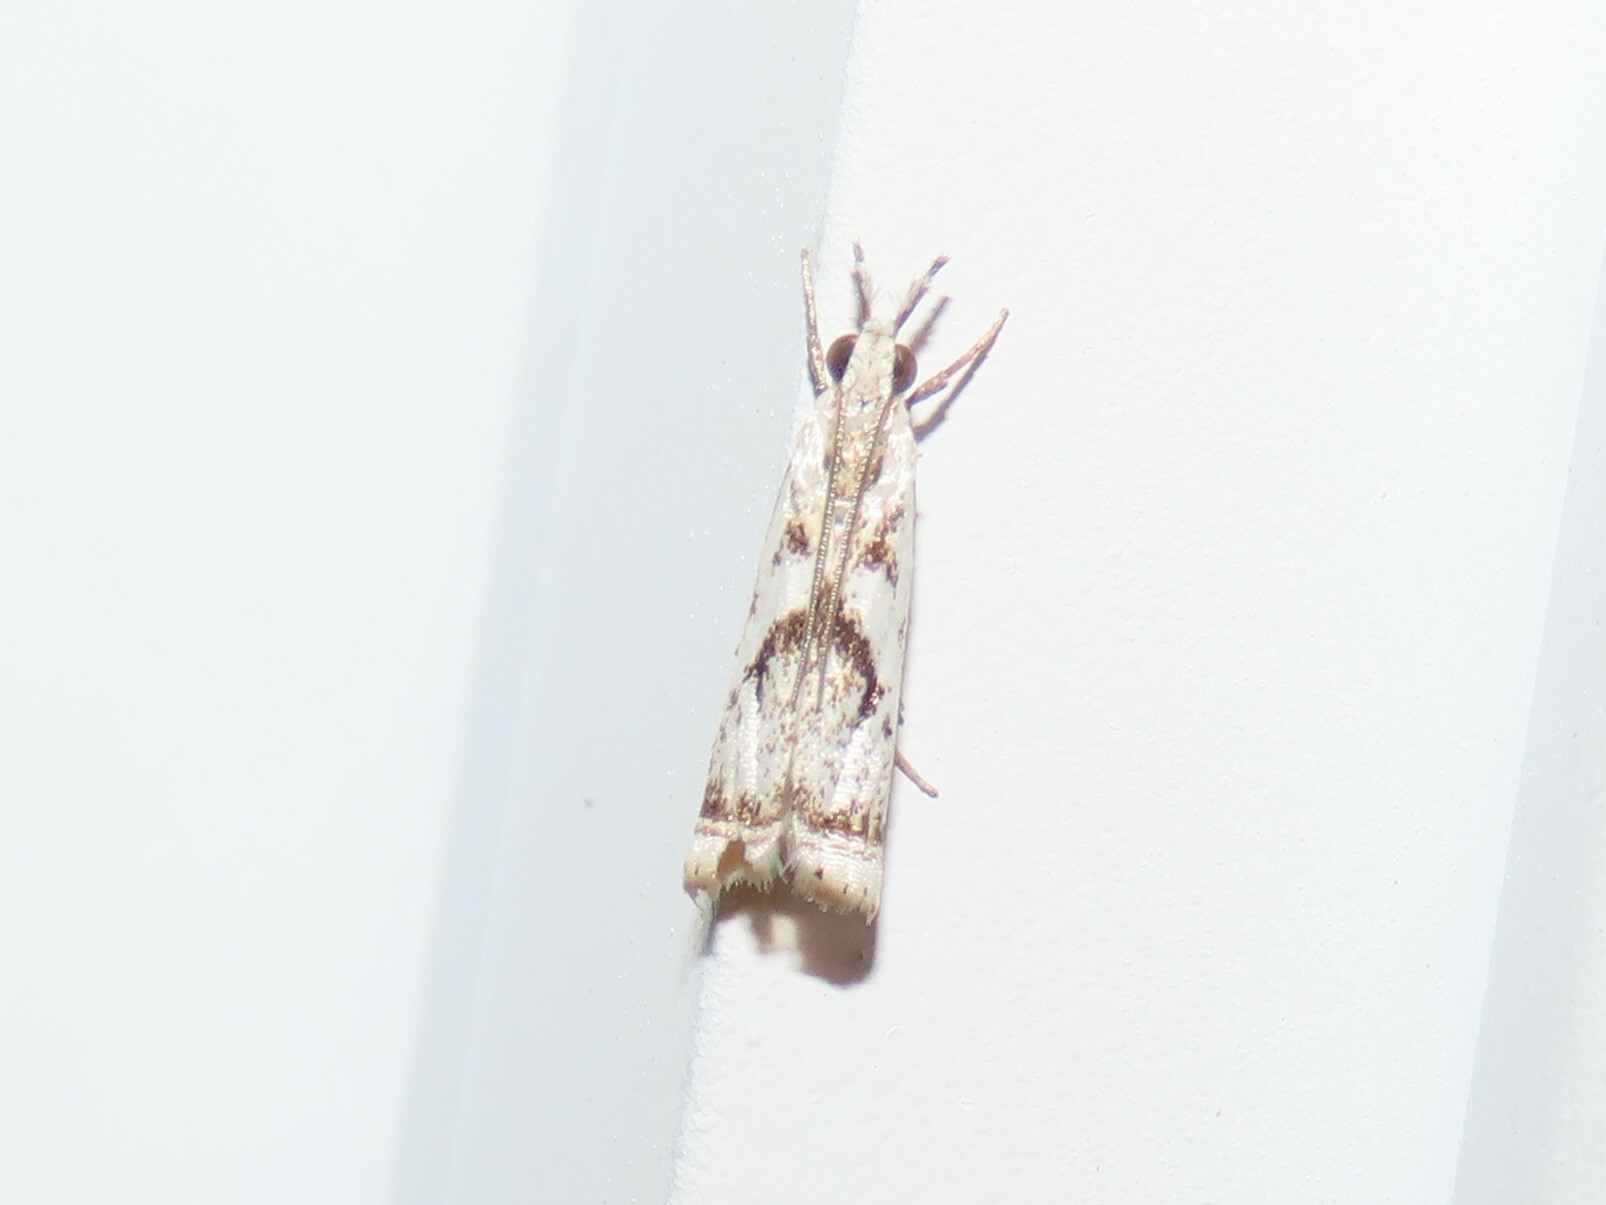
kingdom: Animalia
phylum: Arthropoda
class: Insecta
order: Lepidoptera
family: Crambidae
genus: Microcrambus
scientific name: Microcrambus elegans
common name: Elegant grass-veneer
